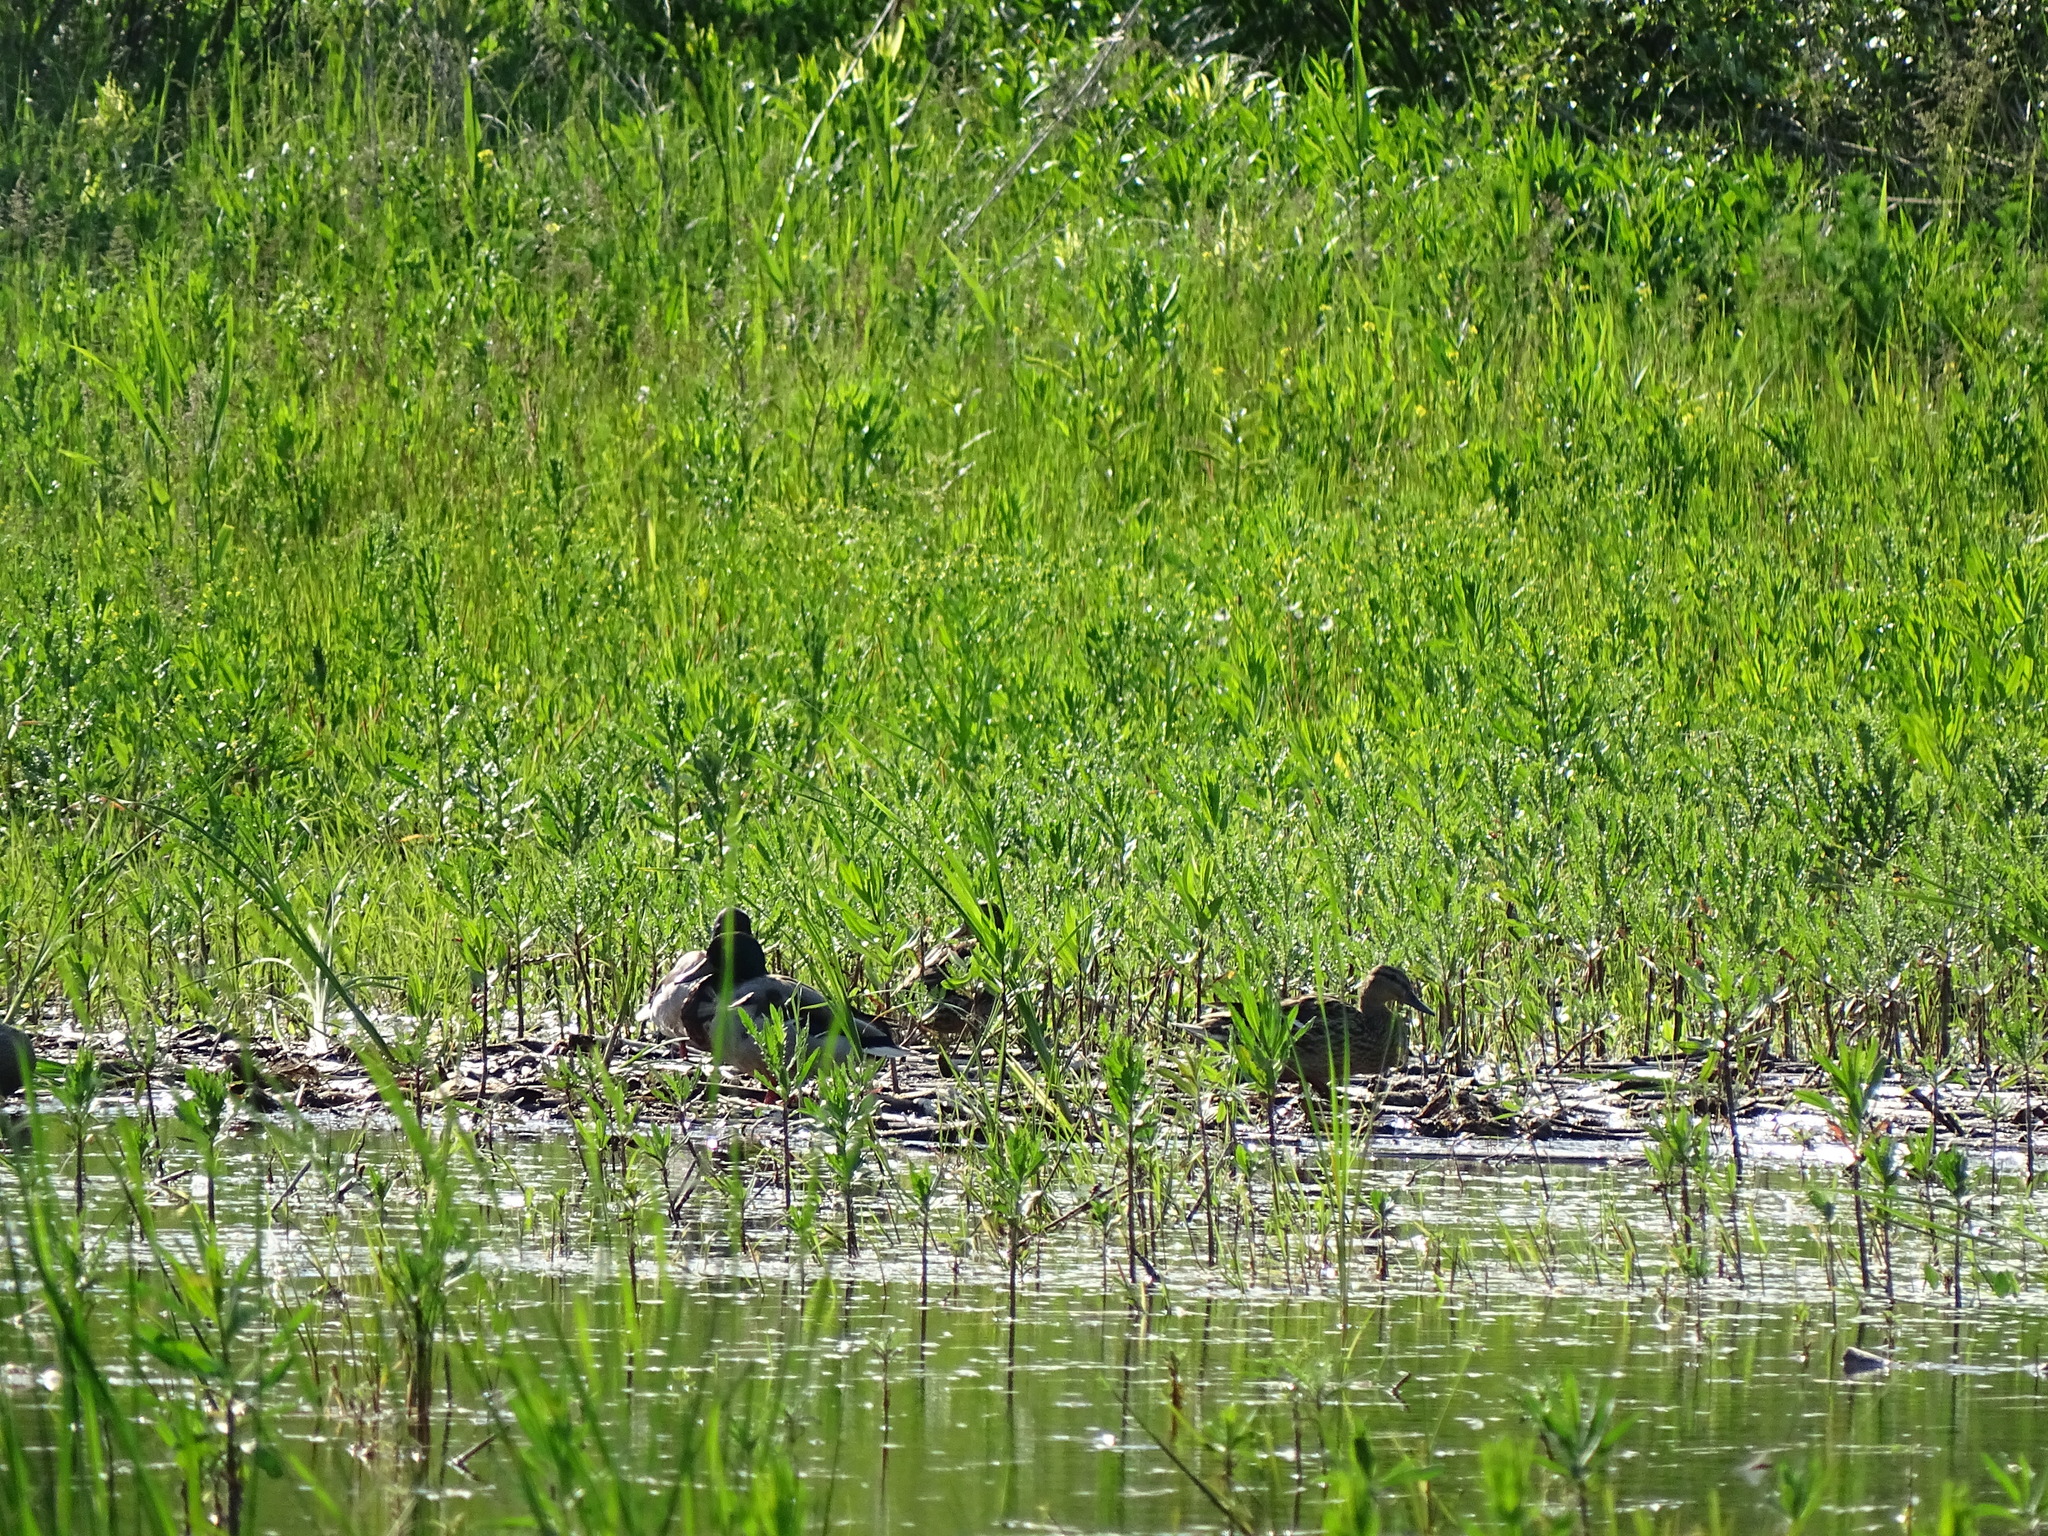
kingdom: Animalia
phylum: Chordata
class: Aves
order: Anseriformes
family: Anatidae
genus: Anas
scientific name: Anas platyrhynchos
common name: Mallard
